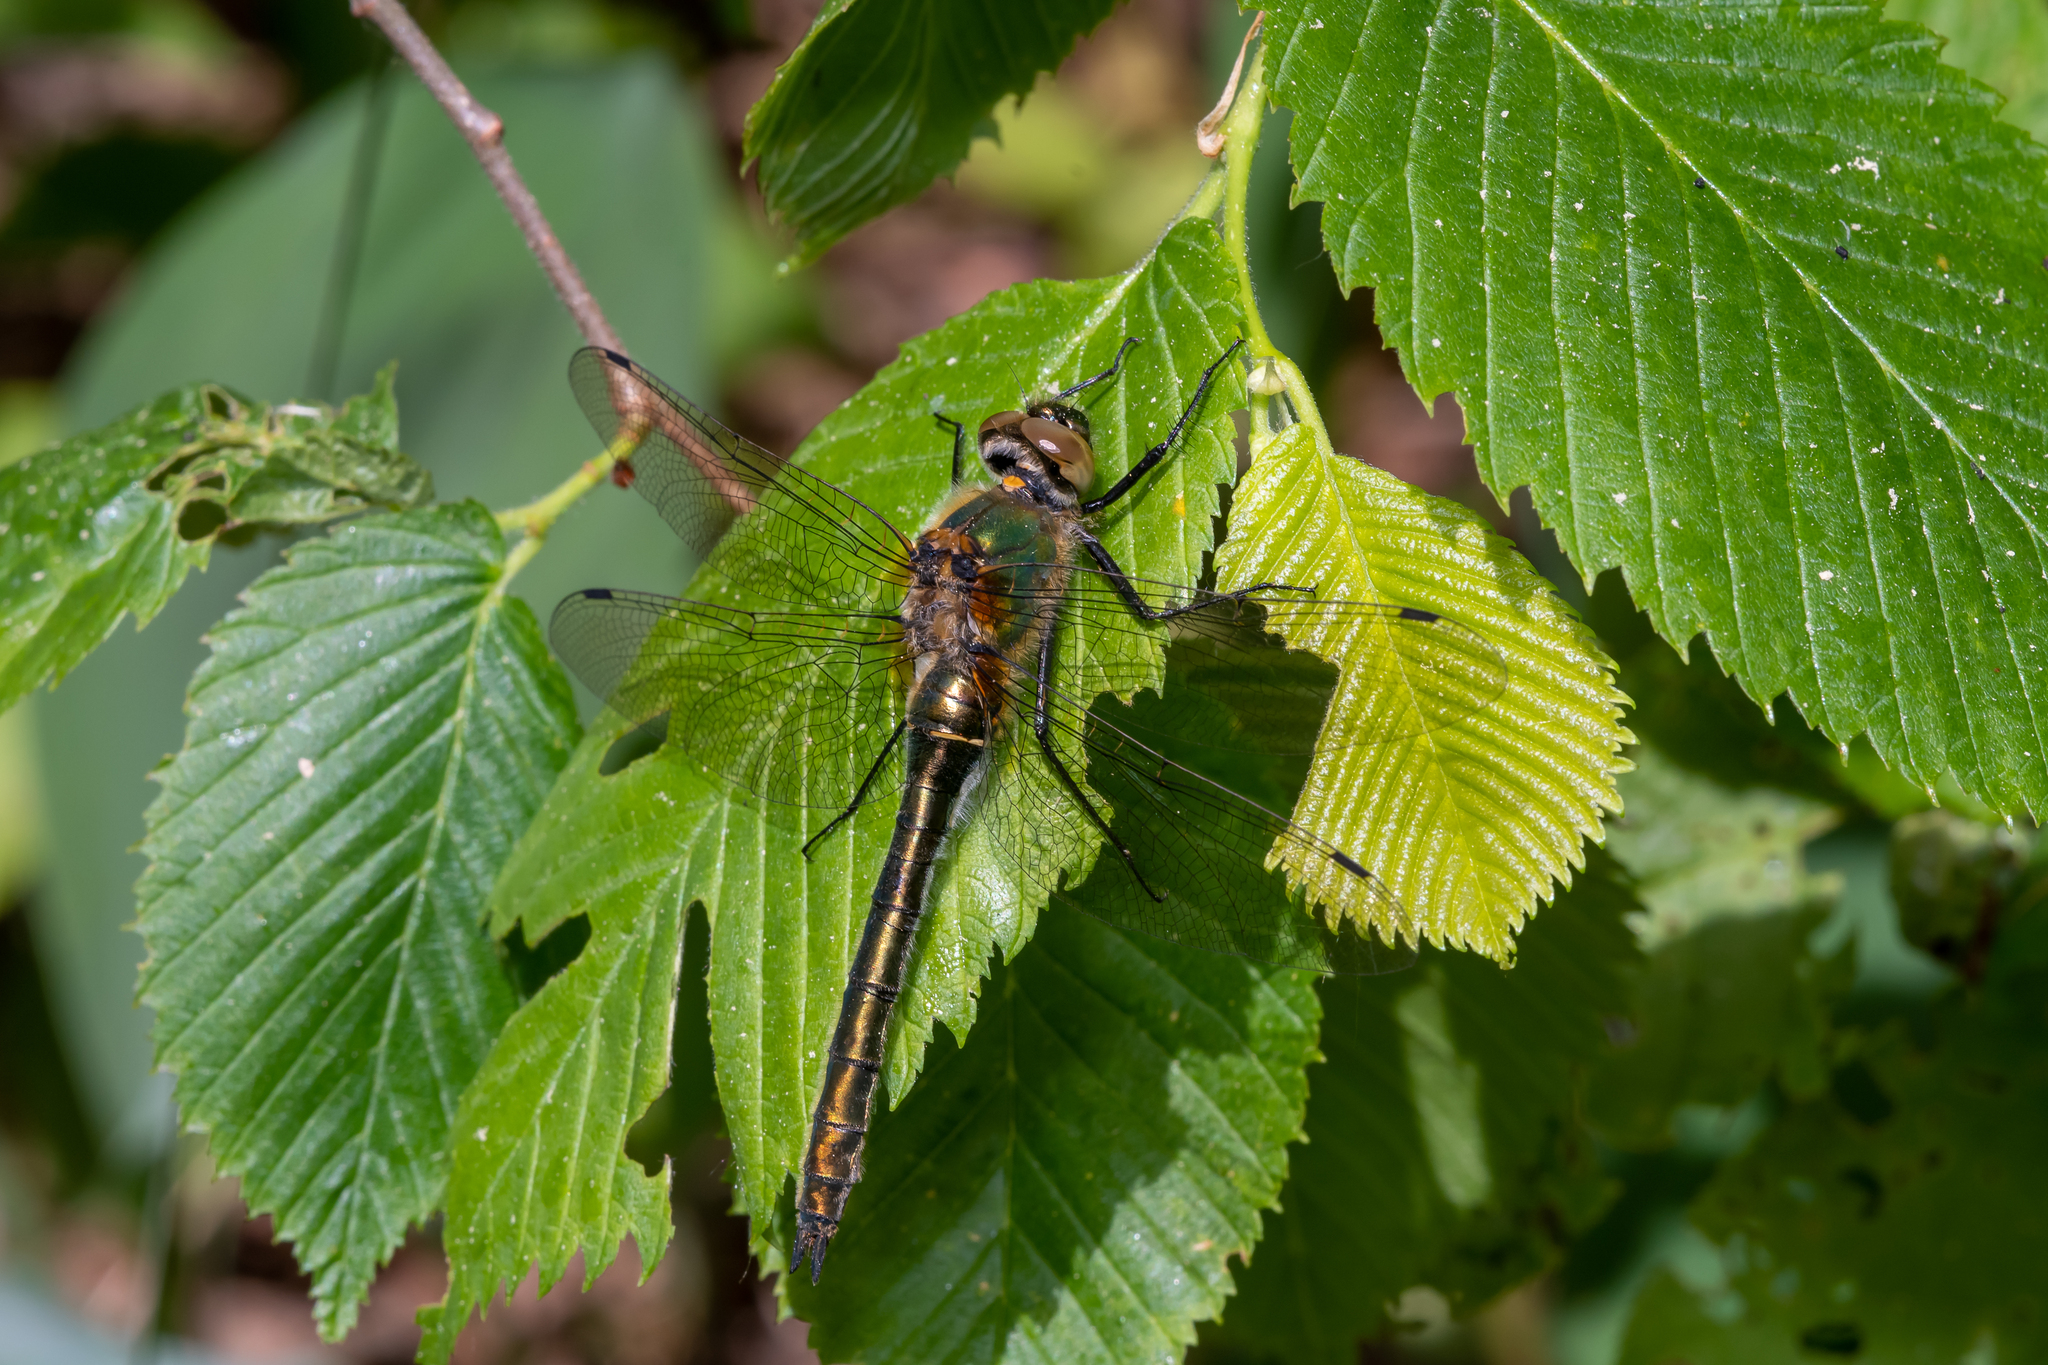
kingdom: Animalia
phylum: Arthropoda
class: Insecta
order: Odonata
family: Corduliidae
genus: Cordulia
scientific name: Cordulia aenea
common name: Downy emerald
